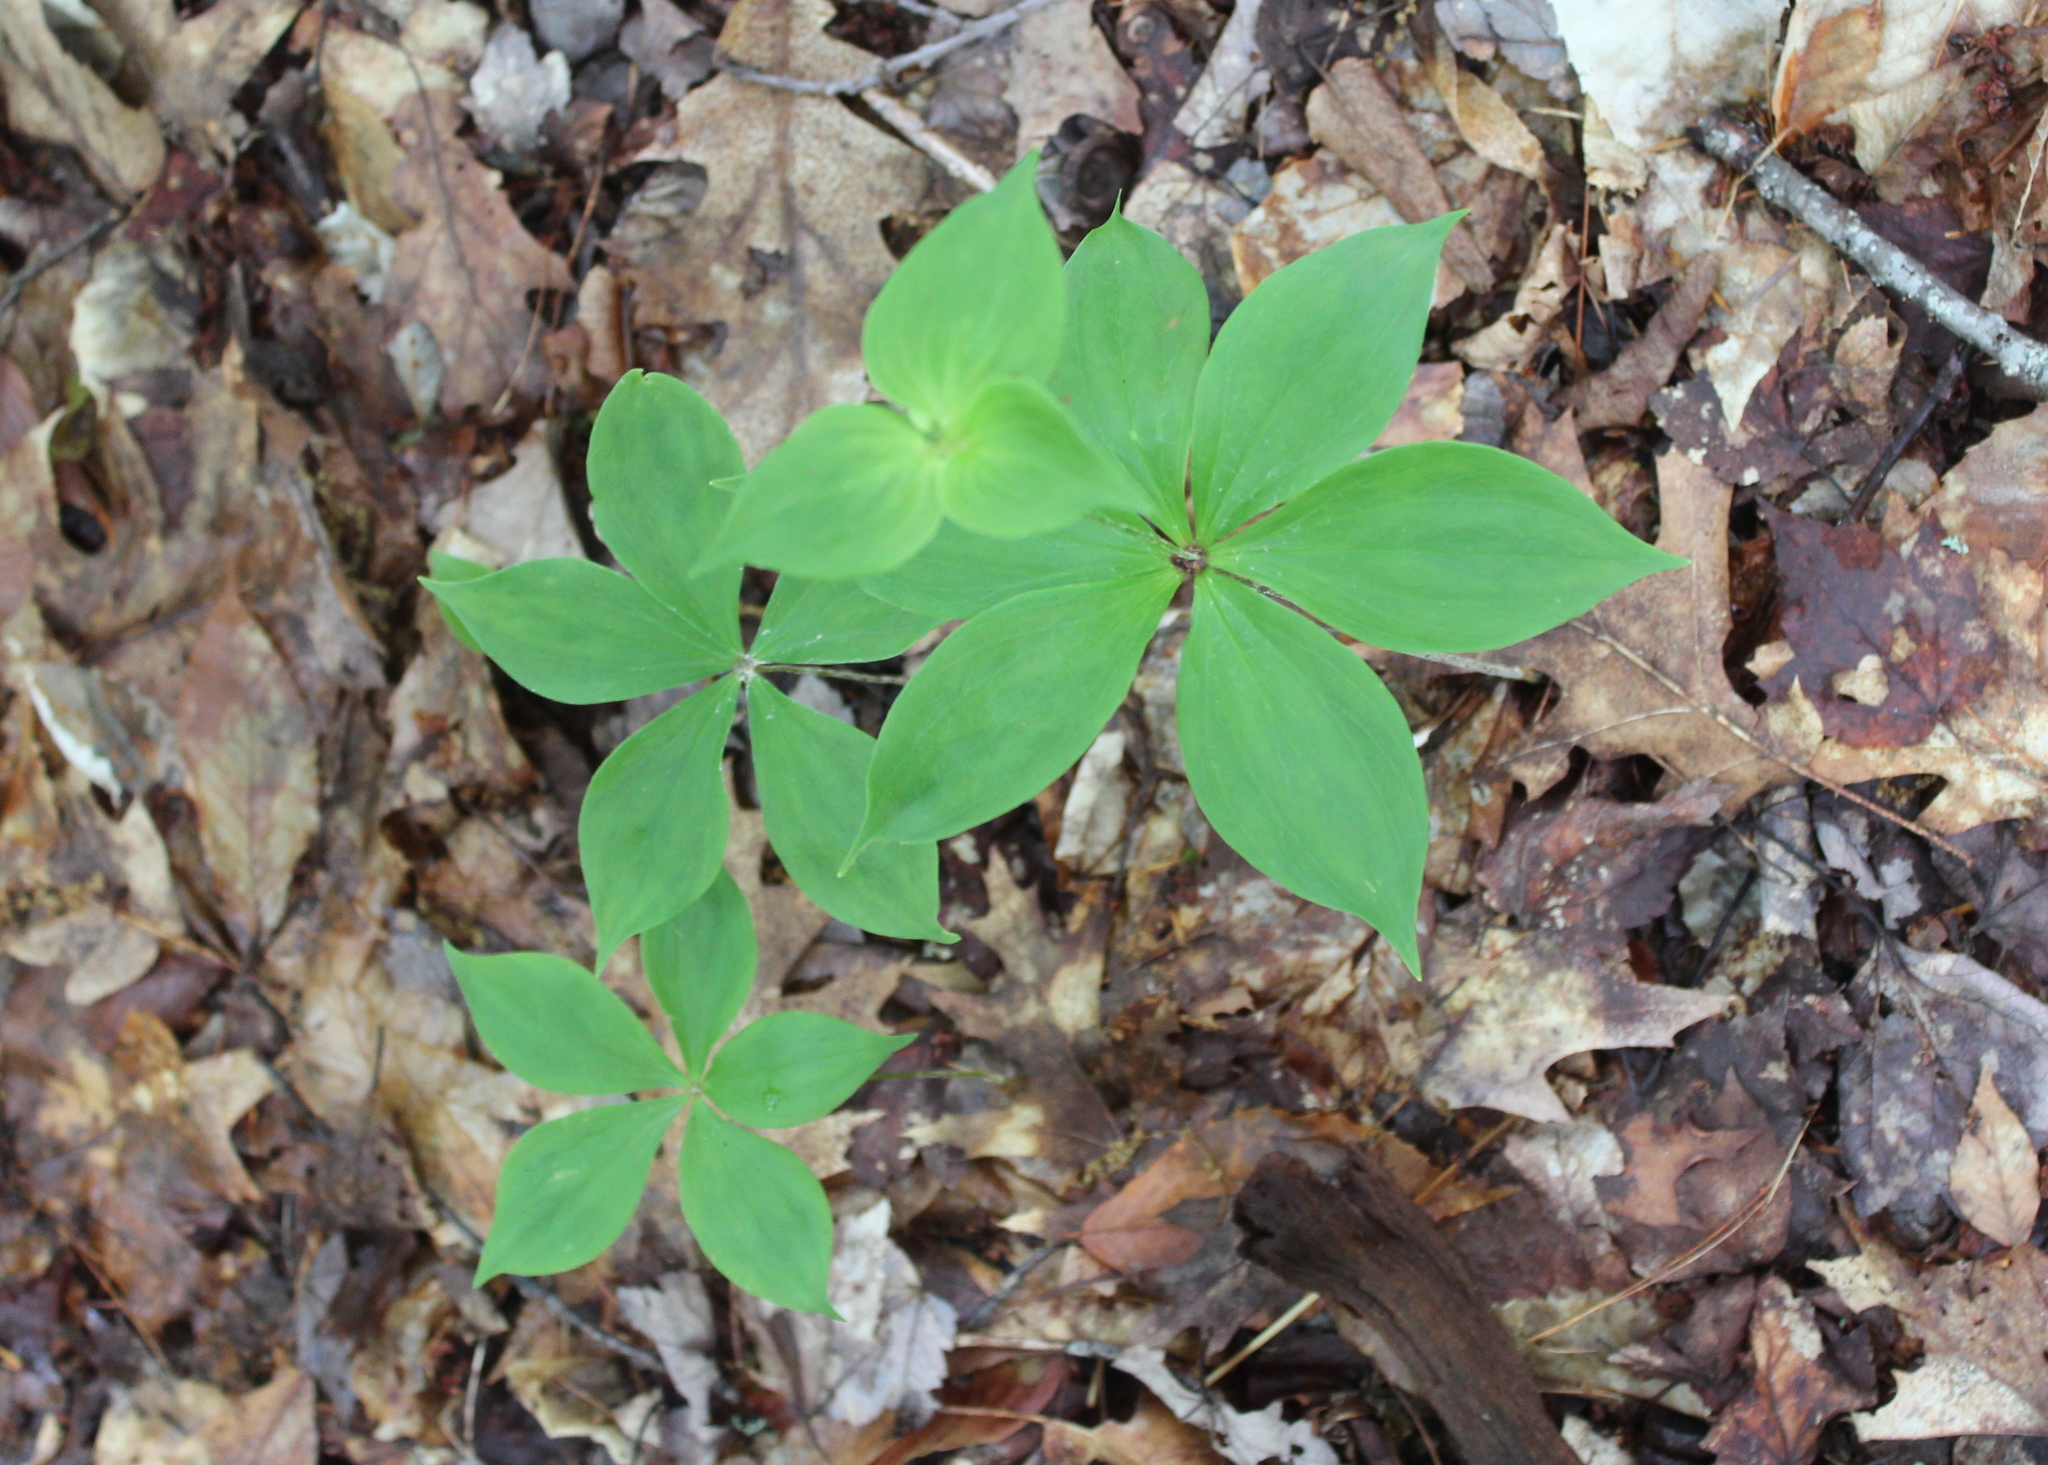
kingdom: Plantae
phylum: Tracheophyta
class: Liliopsida
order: Liliales
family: Liliaceae
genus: Medeola
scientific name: Medeola virginiana
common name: Indian cucumber-root
